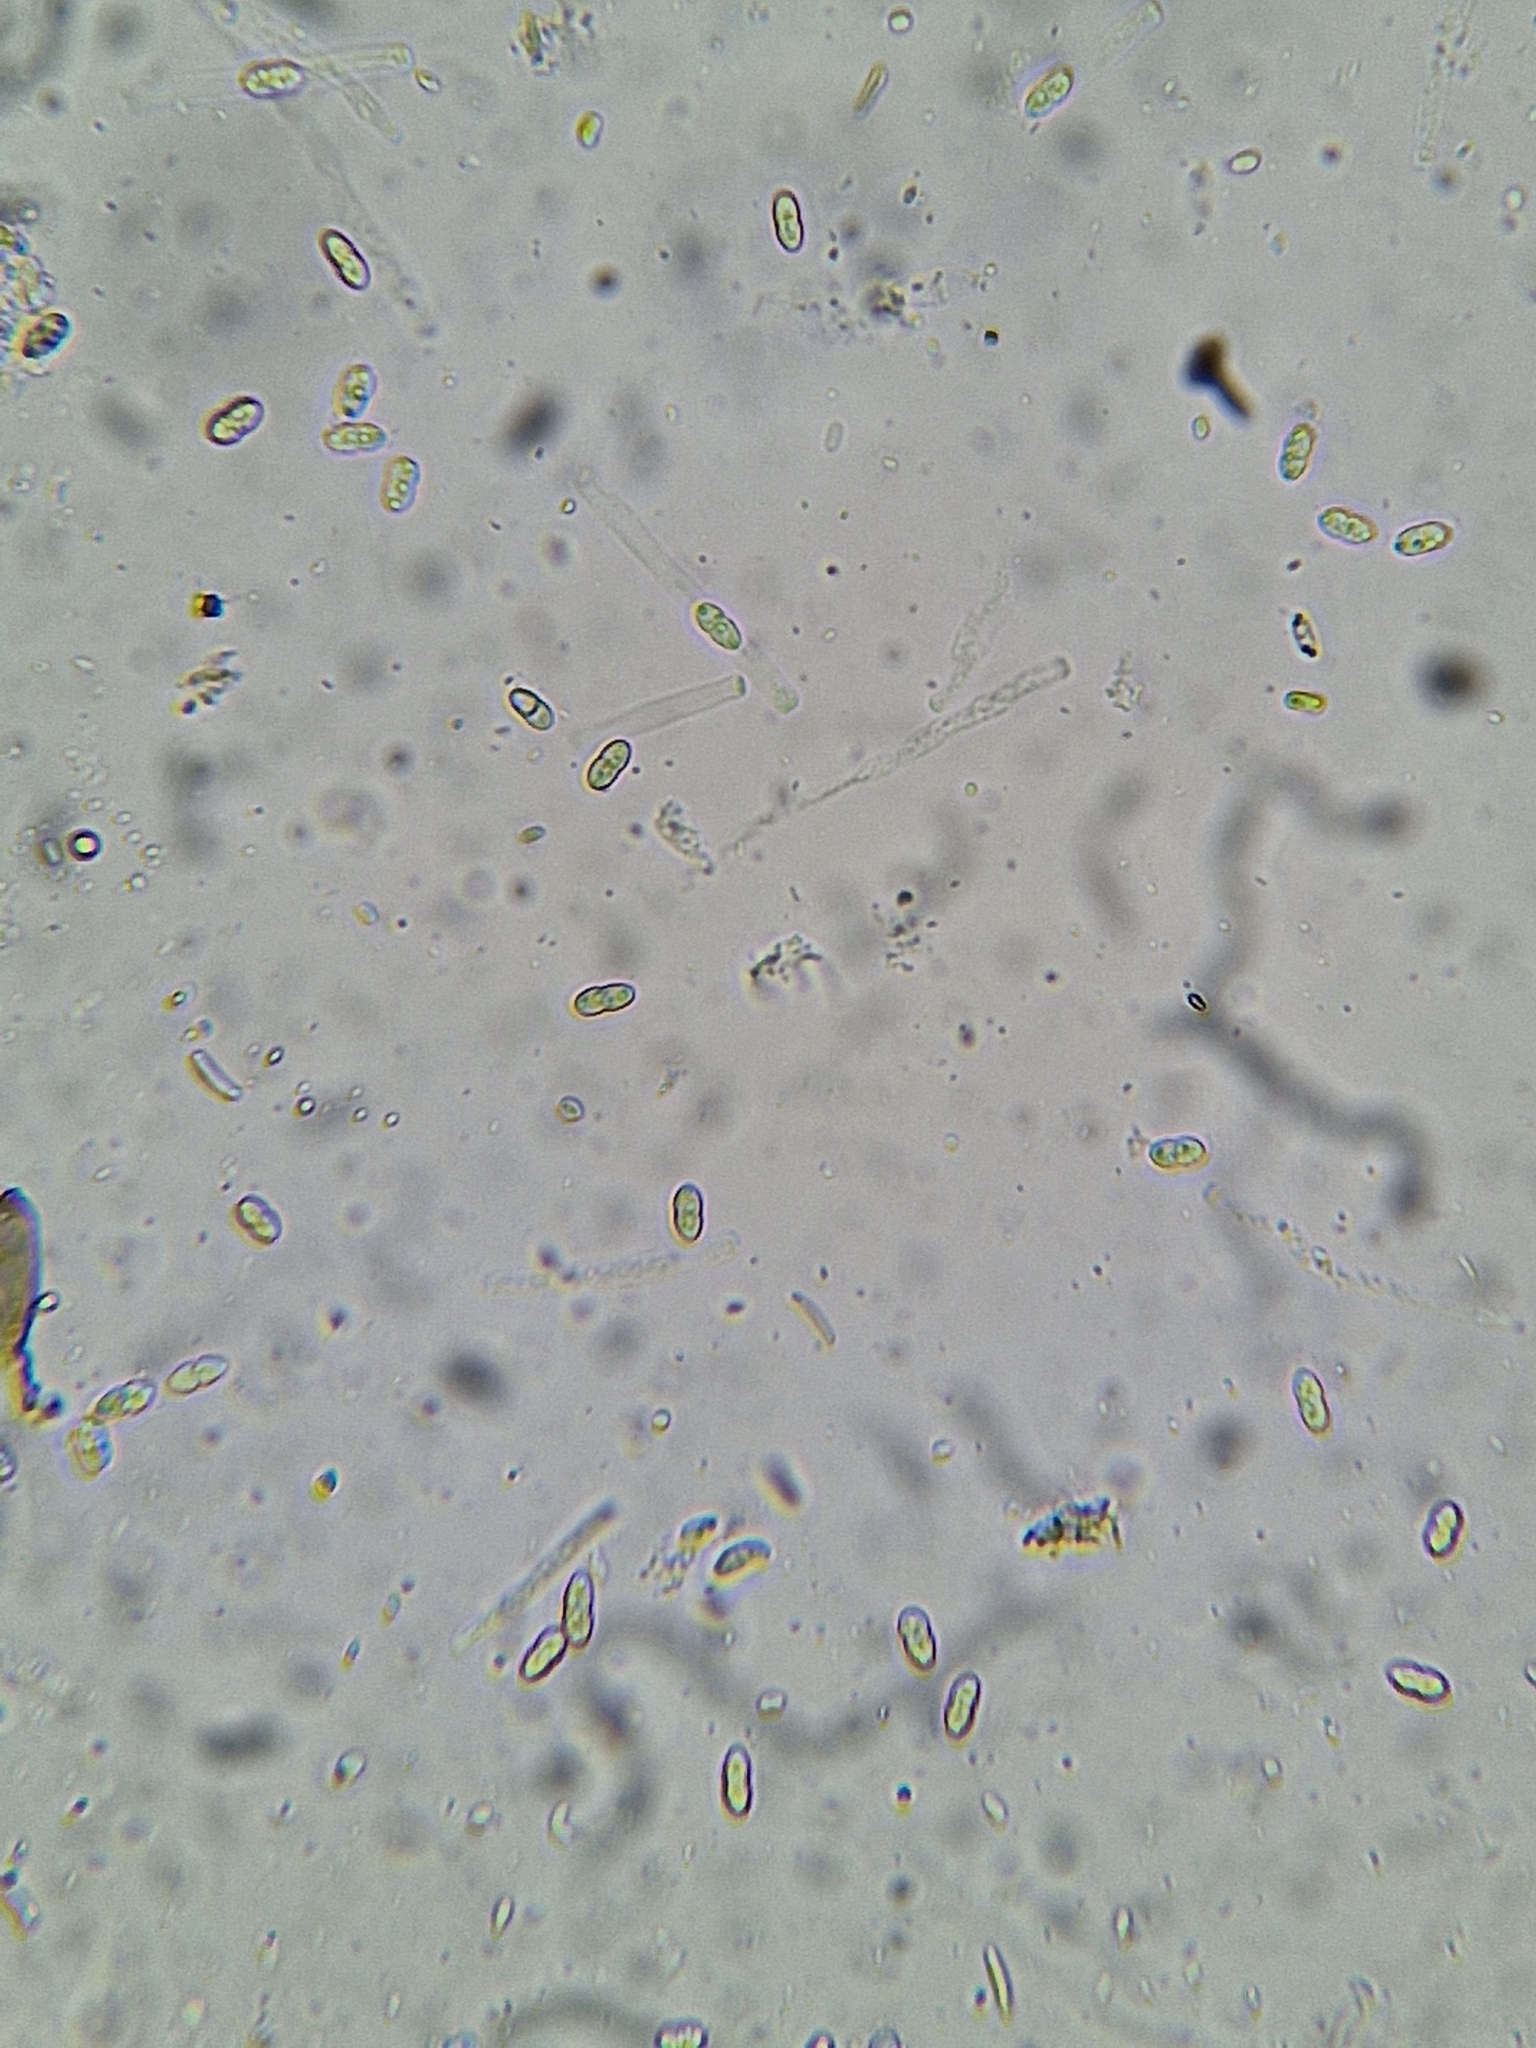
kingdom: Fungi
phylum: Ascomycota
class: Sordariomycetes
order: Hypocreales
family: Nectriaceae
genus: Pseudocosmospora
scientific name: Pseudocosmospora eutypae
